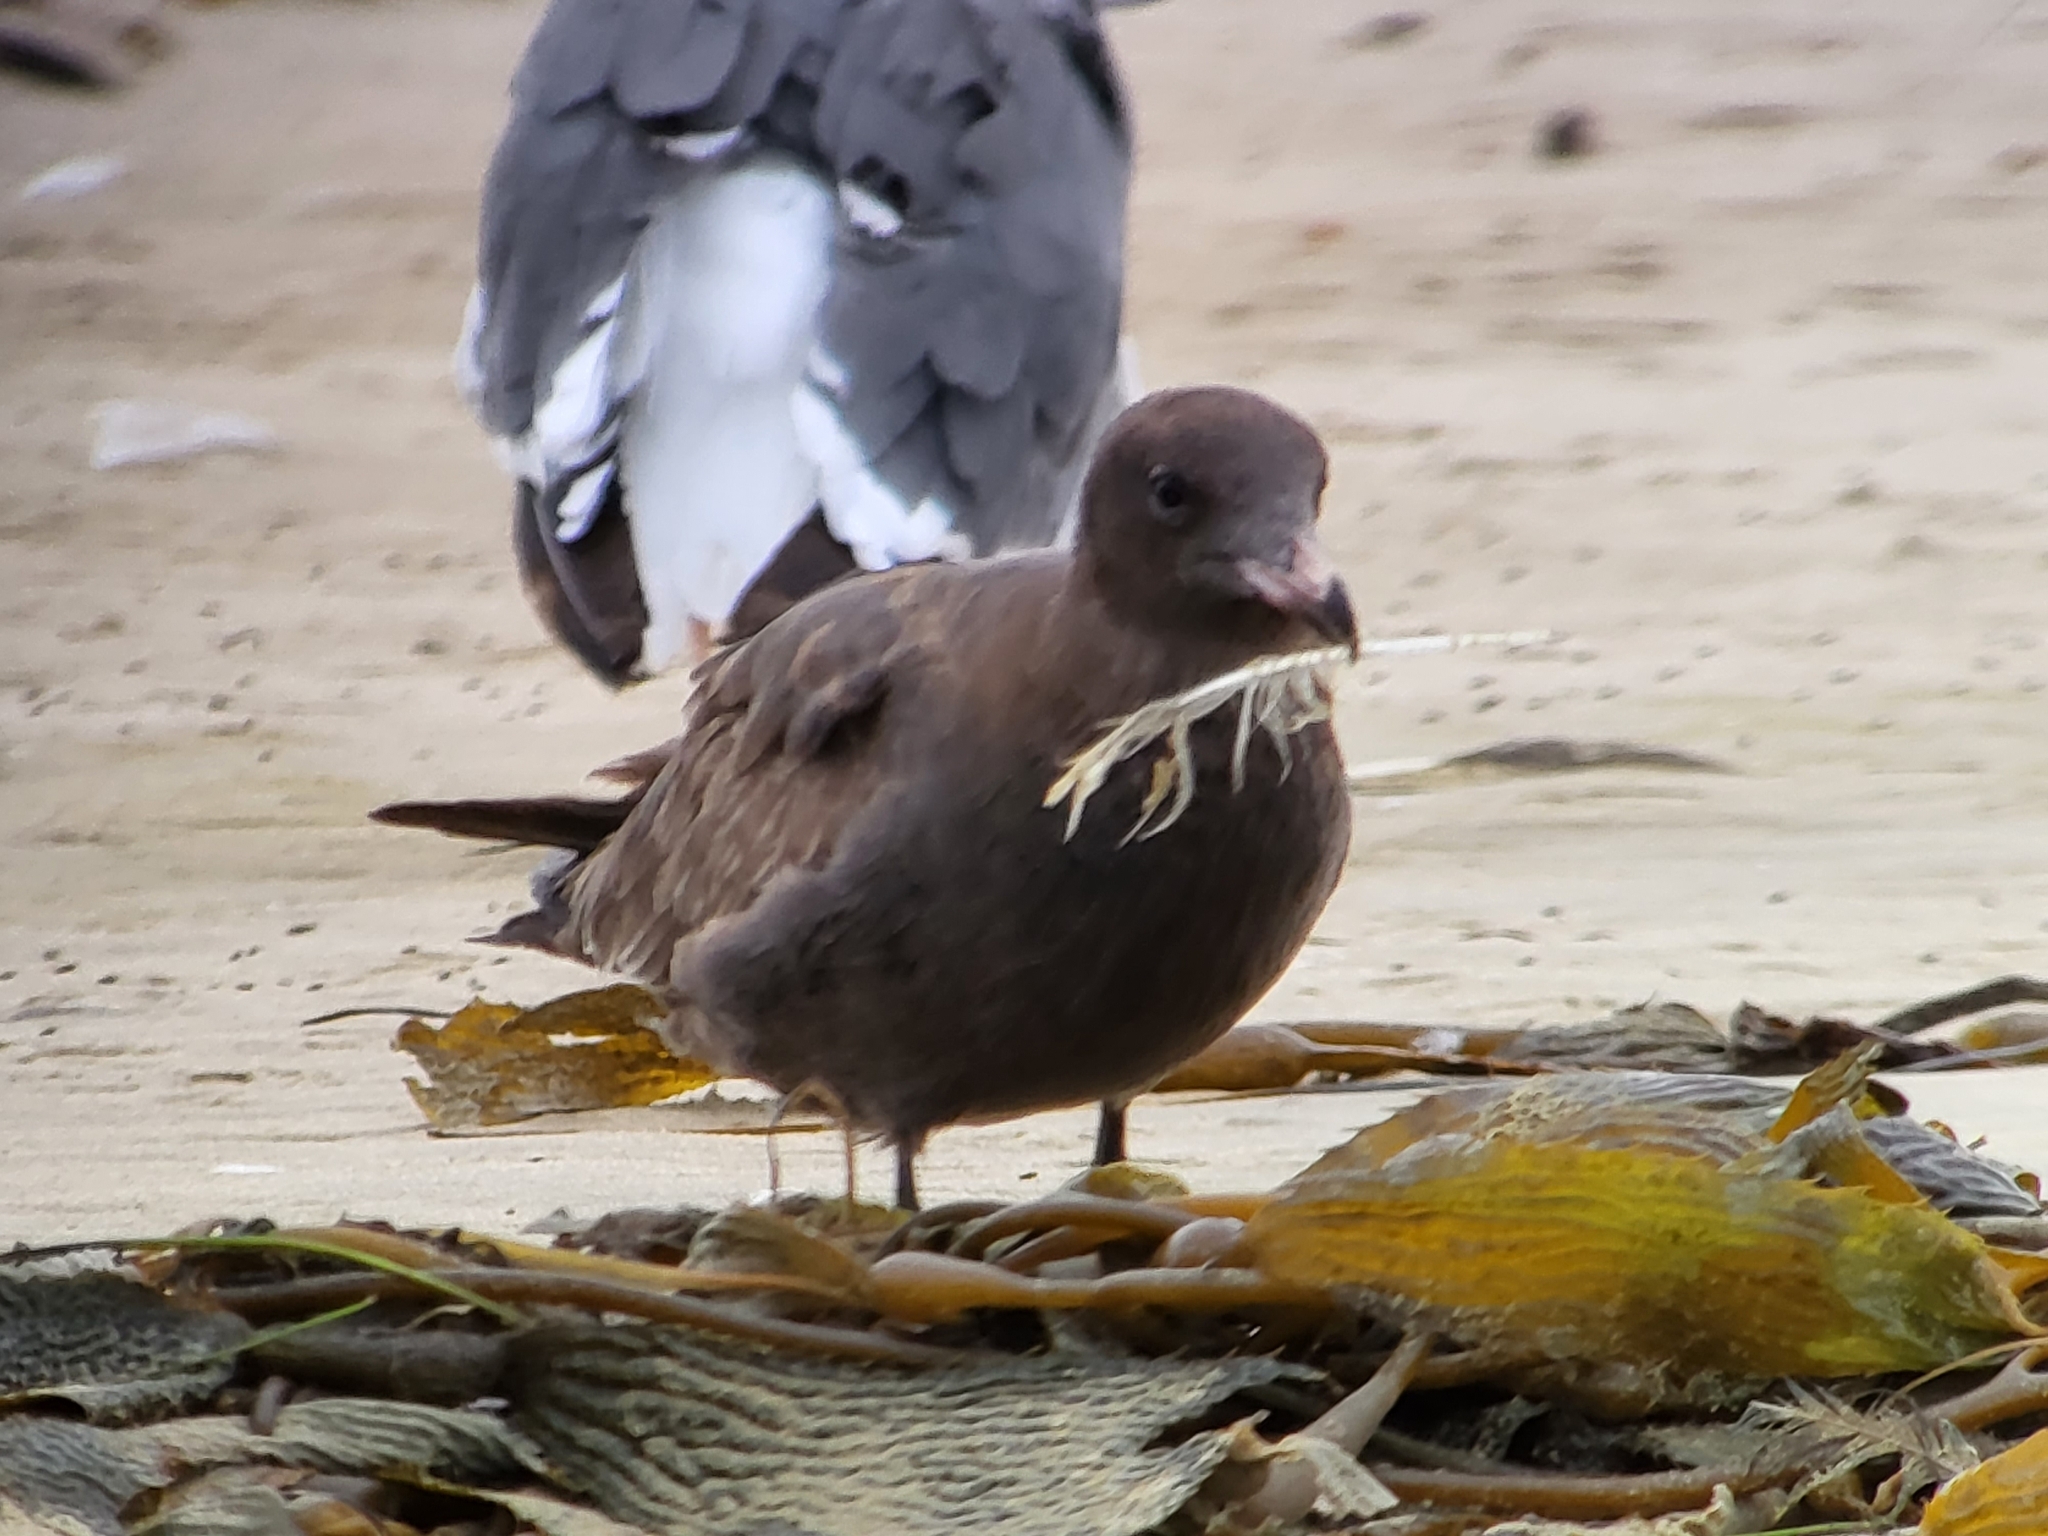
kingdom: Animalia
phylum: Chordata
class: Aves
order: Charadriiformes
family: Laridae
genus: Larus
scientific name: Larus heermanni
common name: Heermann's gull
